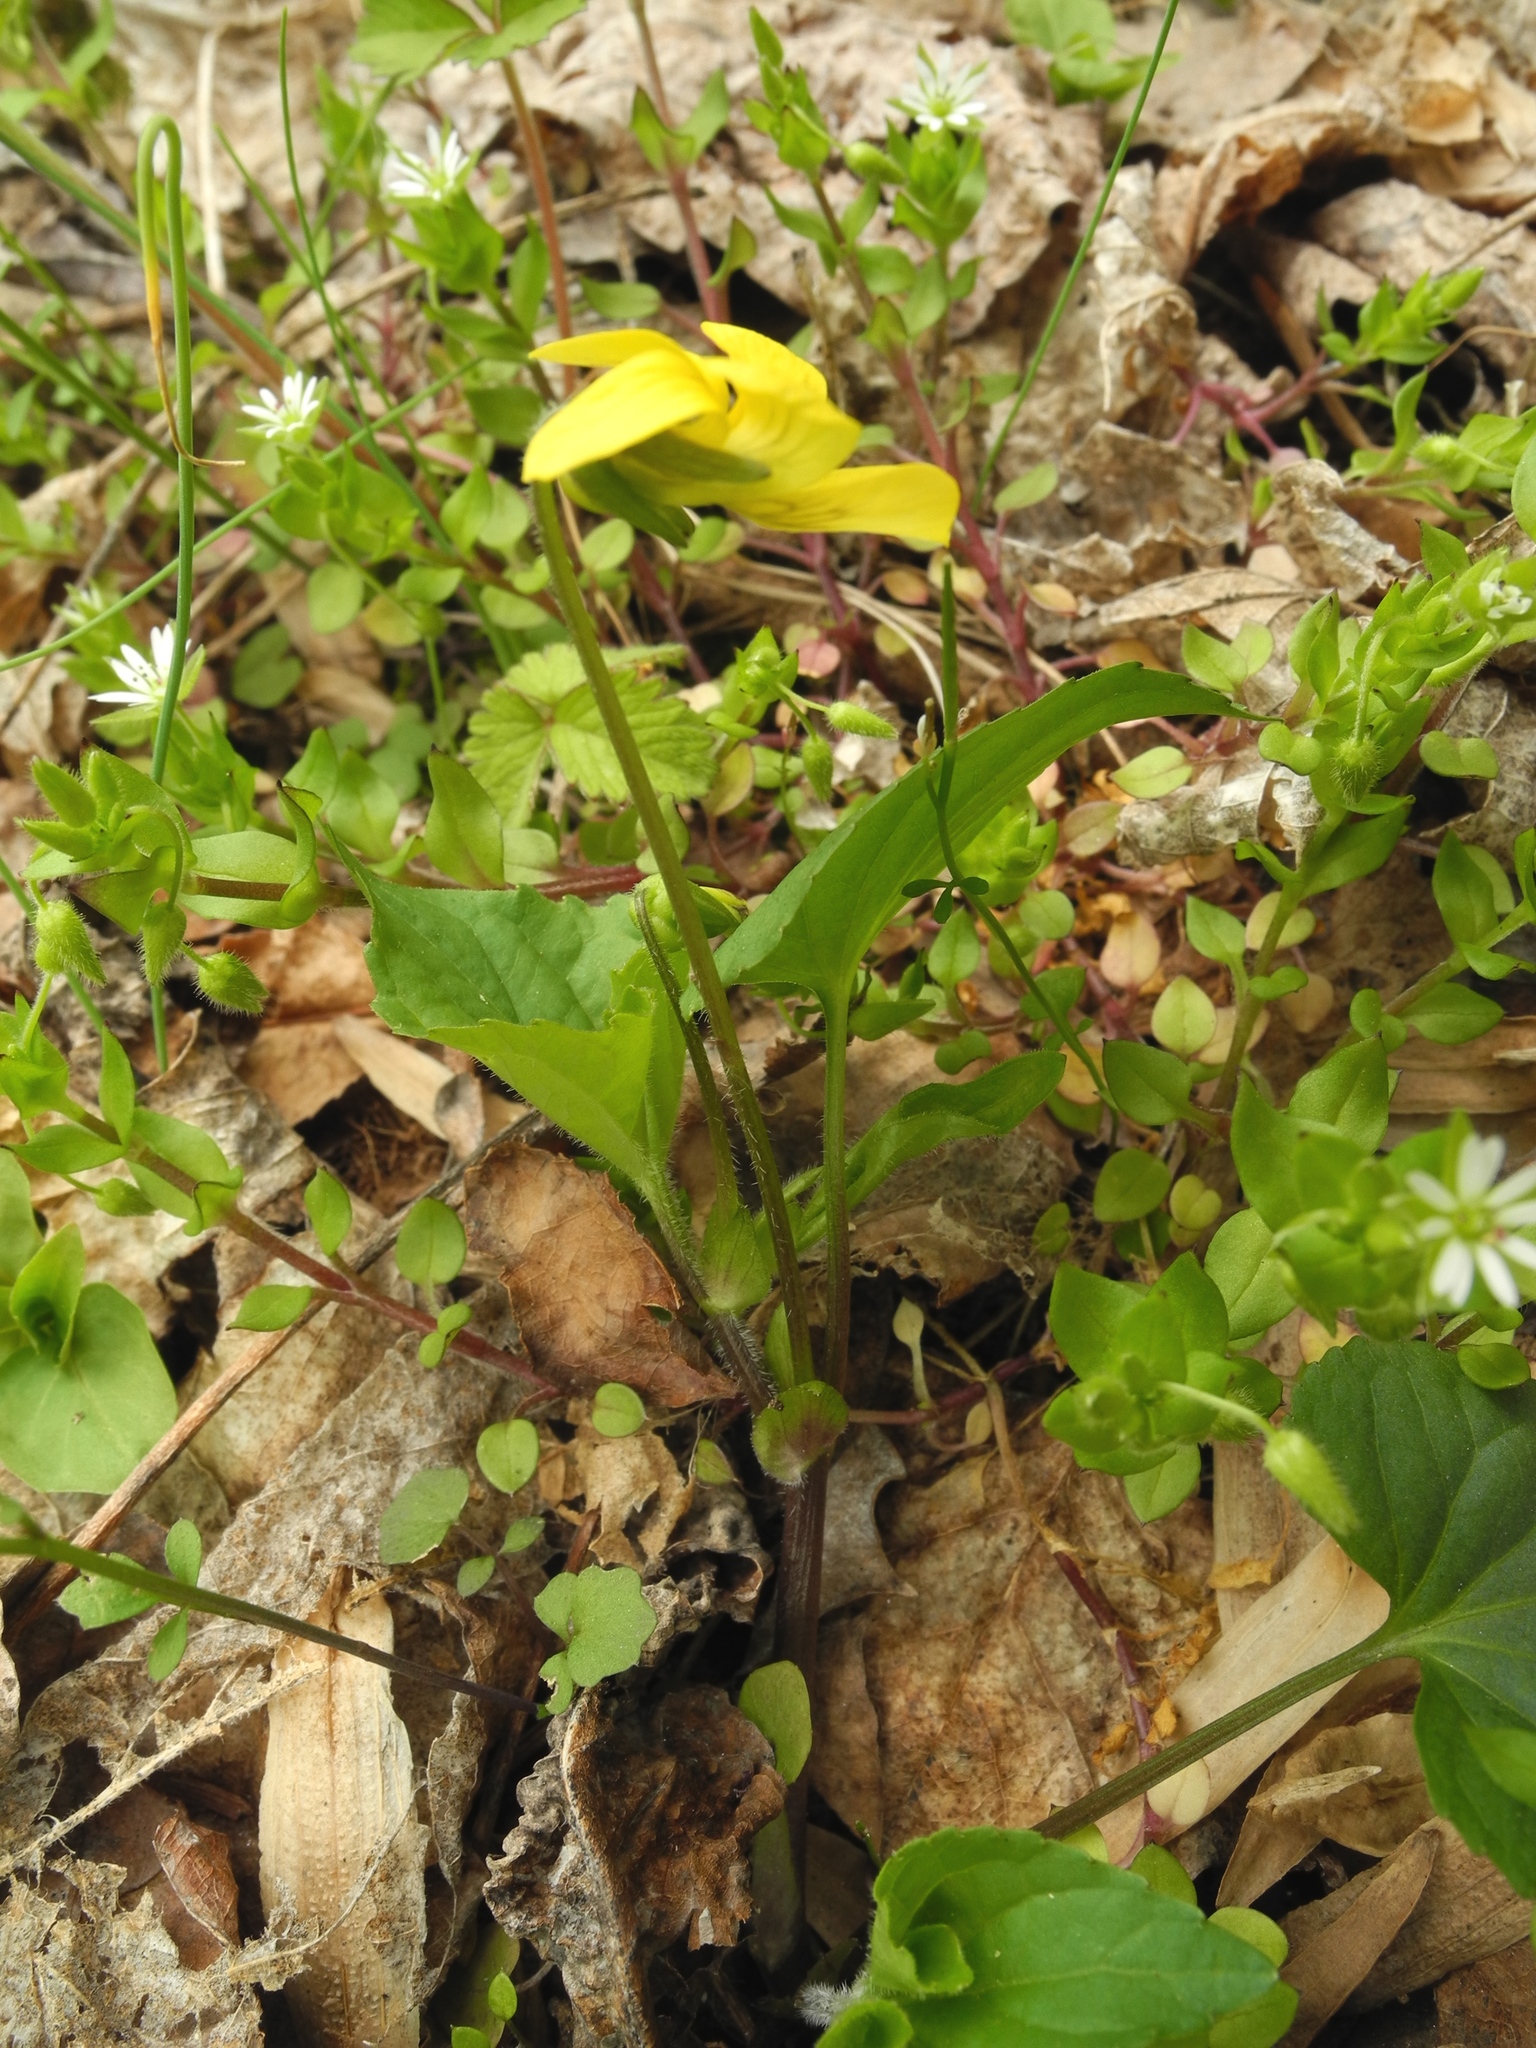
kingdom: Plantae
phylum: Tracheophyta
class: Magnoliopsida
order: Malpighiales
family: Violaceae
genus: Viola
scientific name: Viola eriocarpa
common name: Smooth yellow violet
